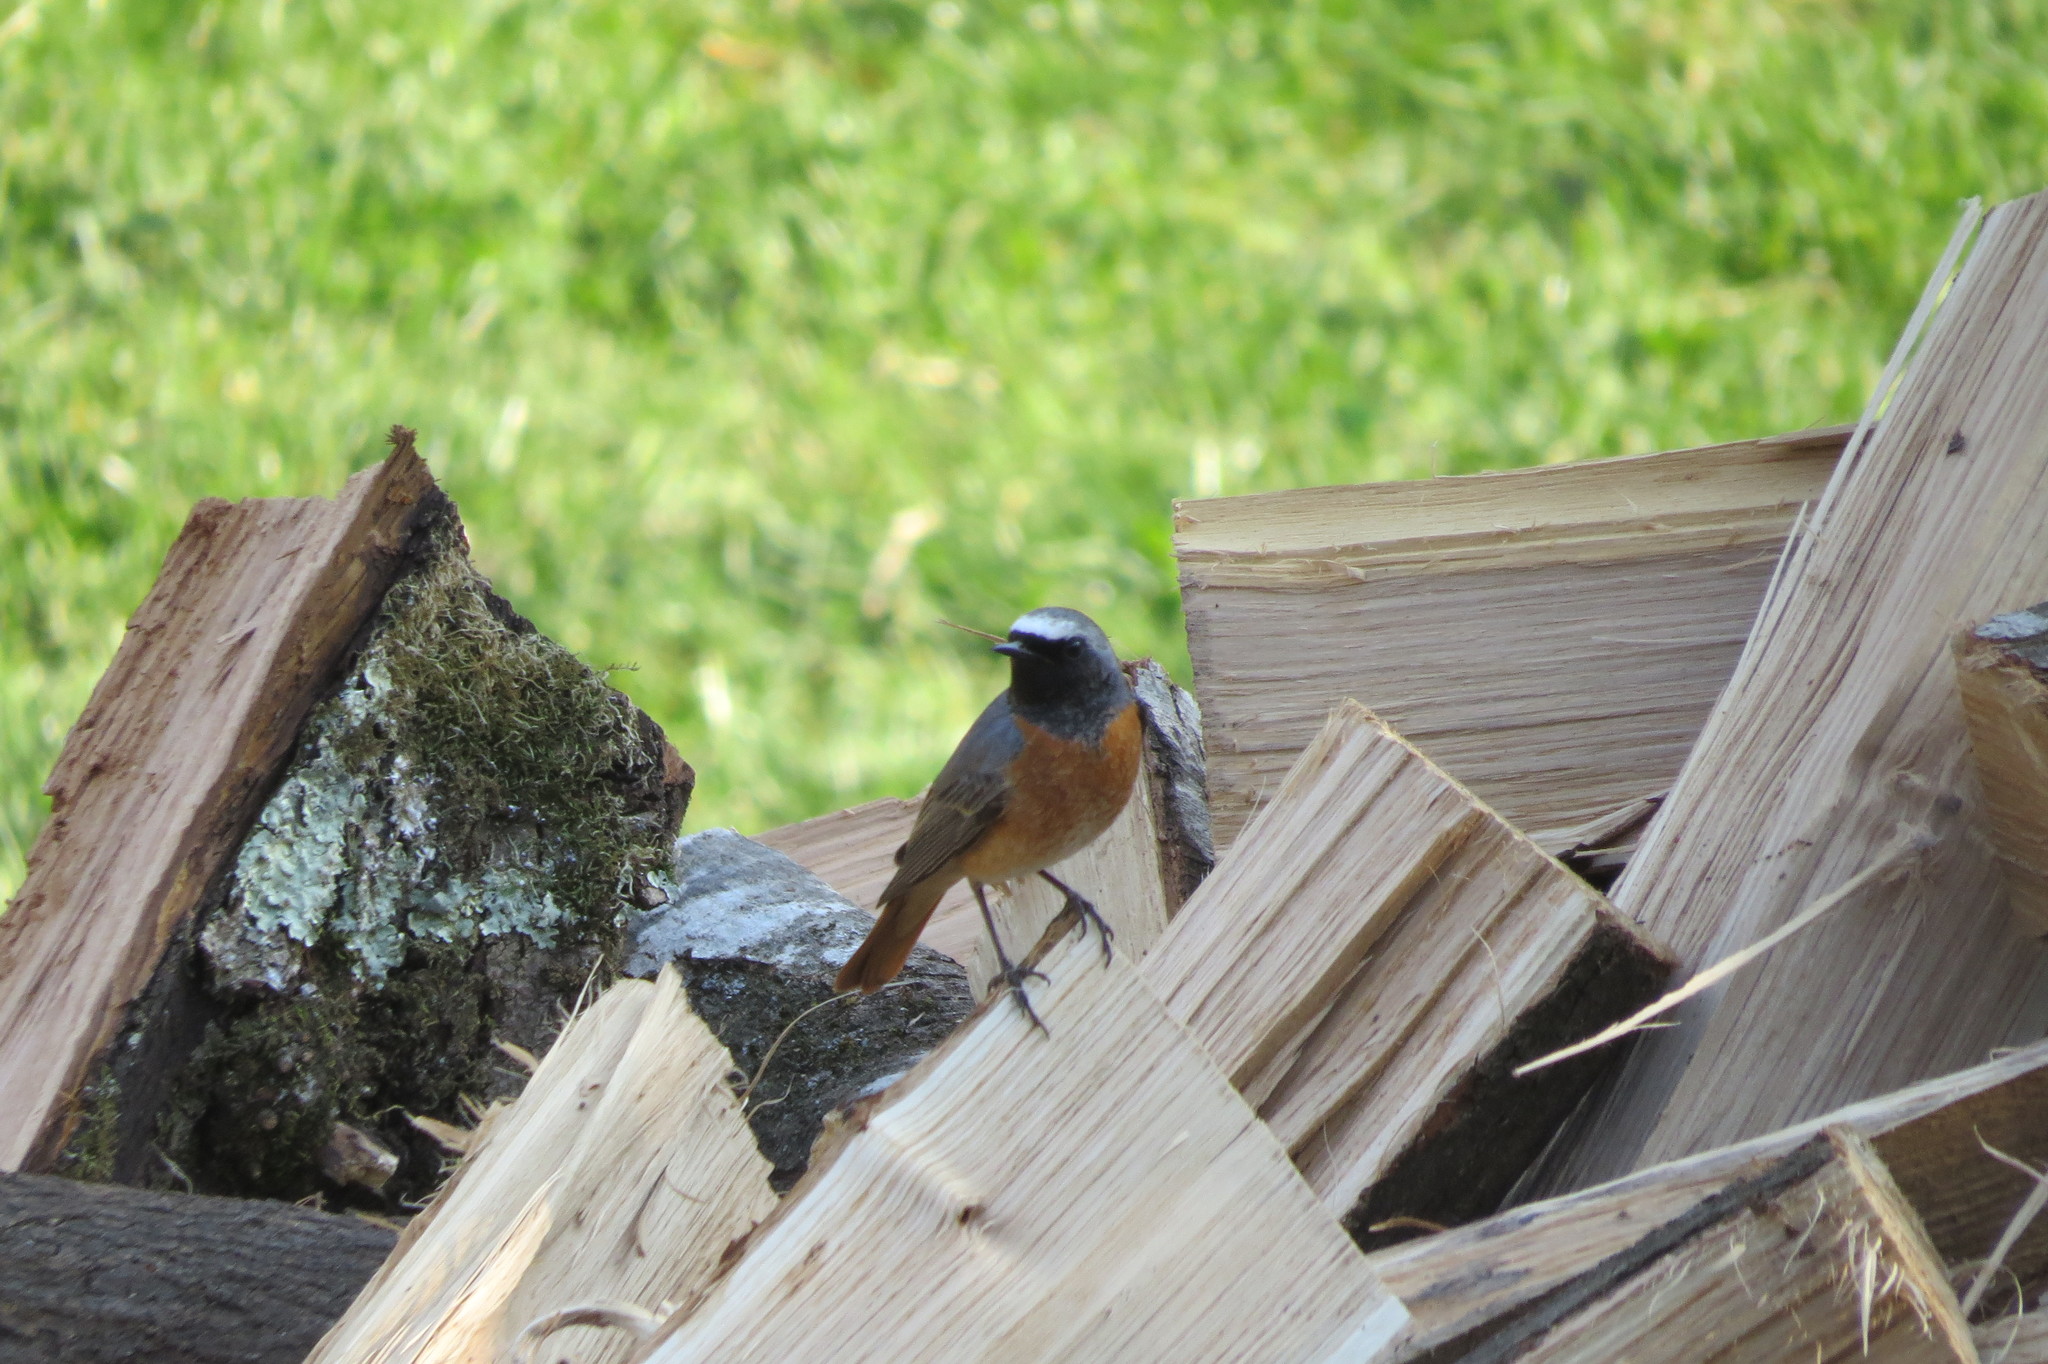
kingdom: Animalia
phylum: Chordata
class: Aves
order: Passeriformes
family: Muscicapidae
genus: Phoenicurus
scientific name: Phoenicurus phoenicurus
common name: Common redstart
